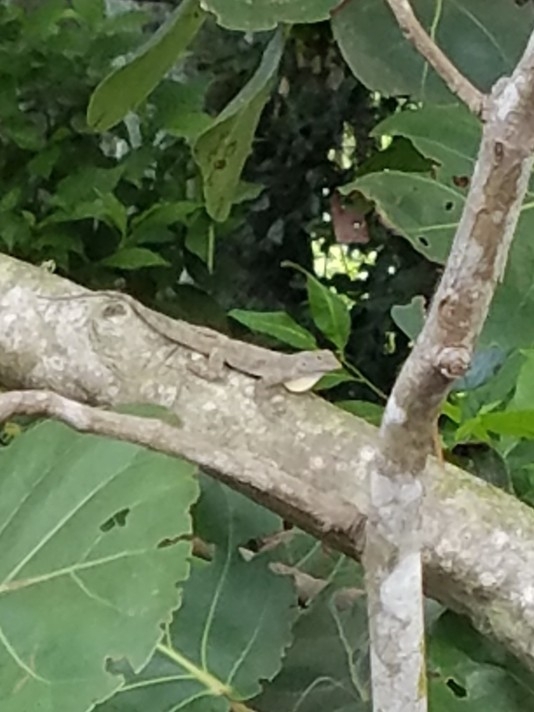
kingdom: Animalia
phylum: Chordata
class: Squamata
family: Dactyloidae
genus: Anolis
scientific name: Anolis distichus
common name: Bark anole
